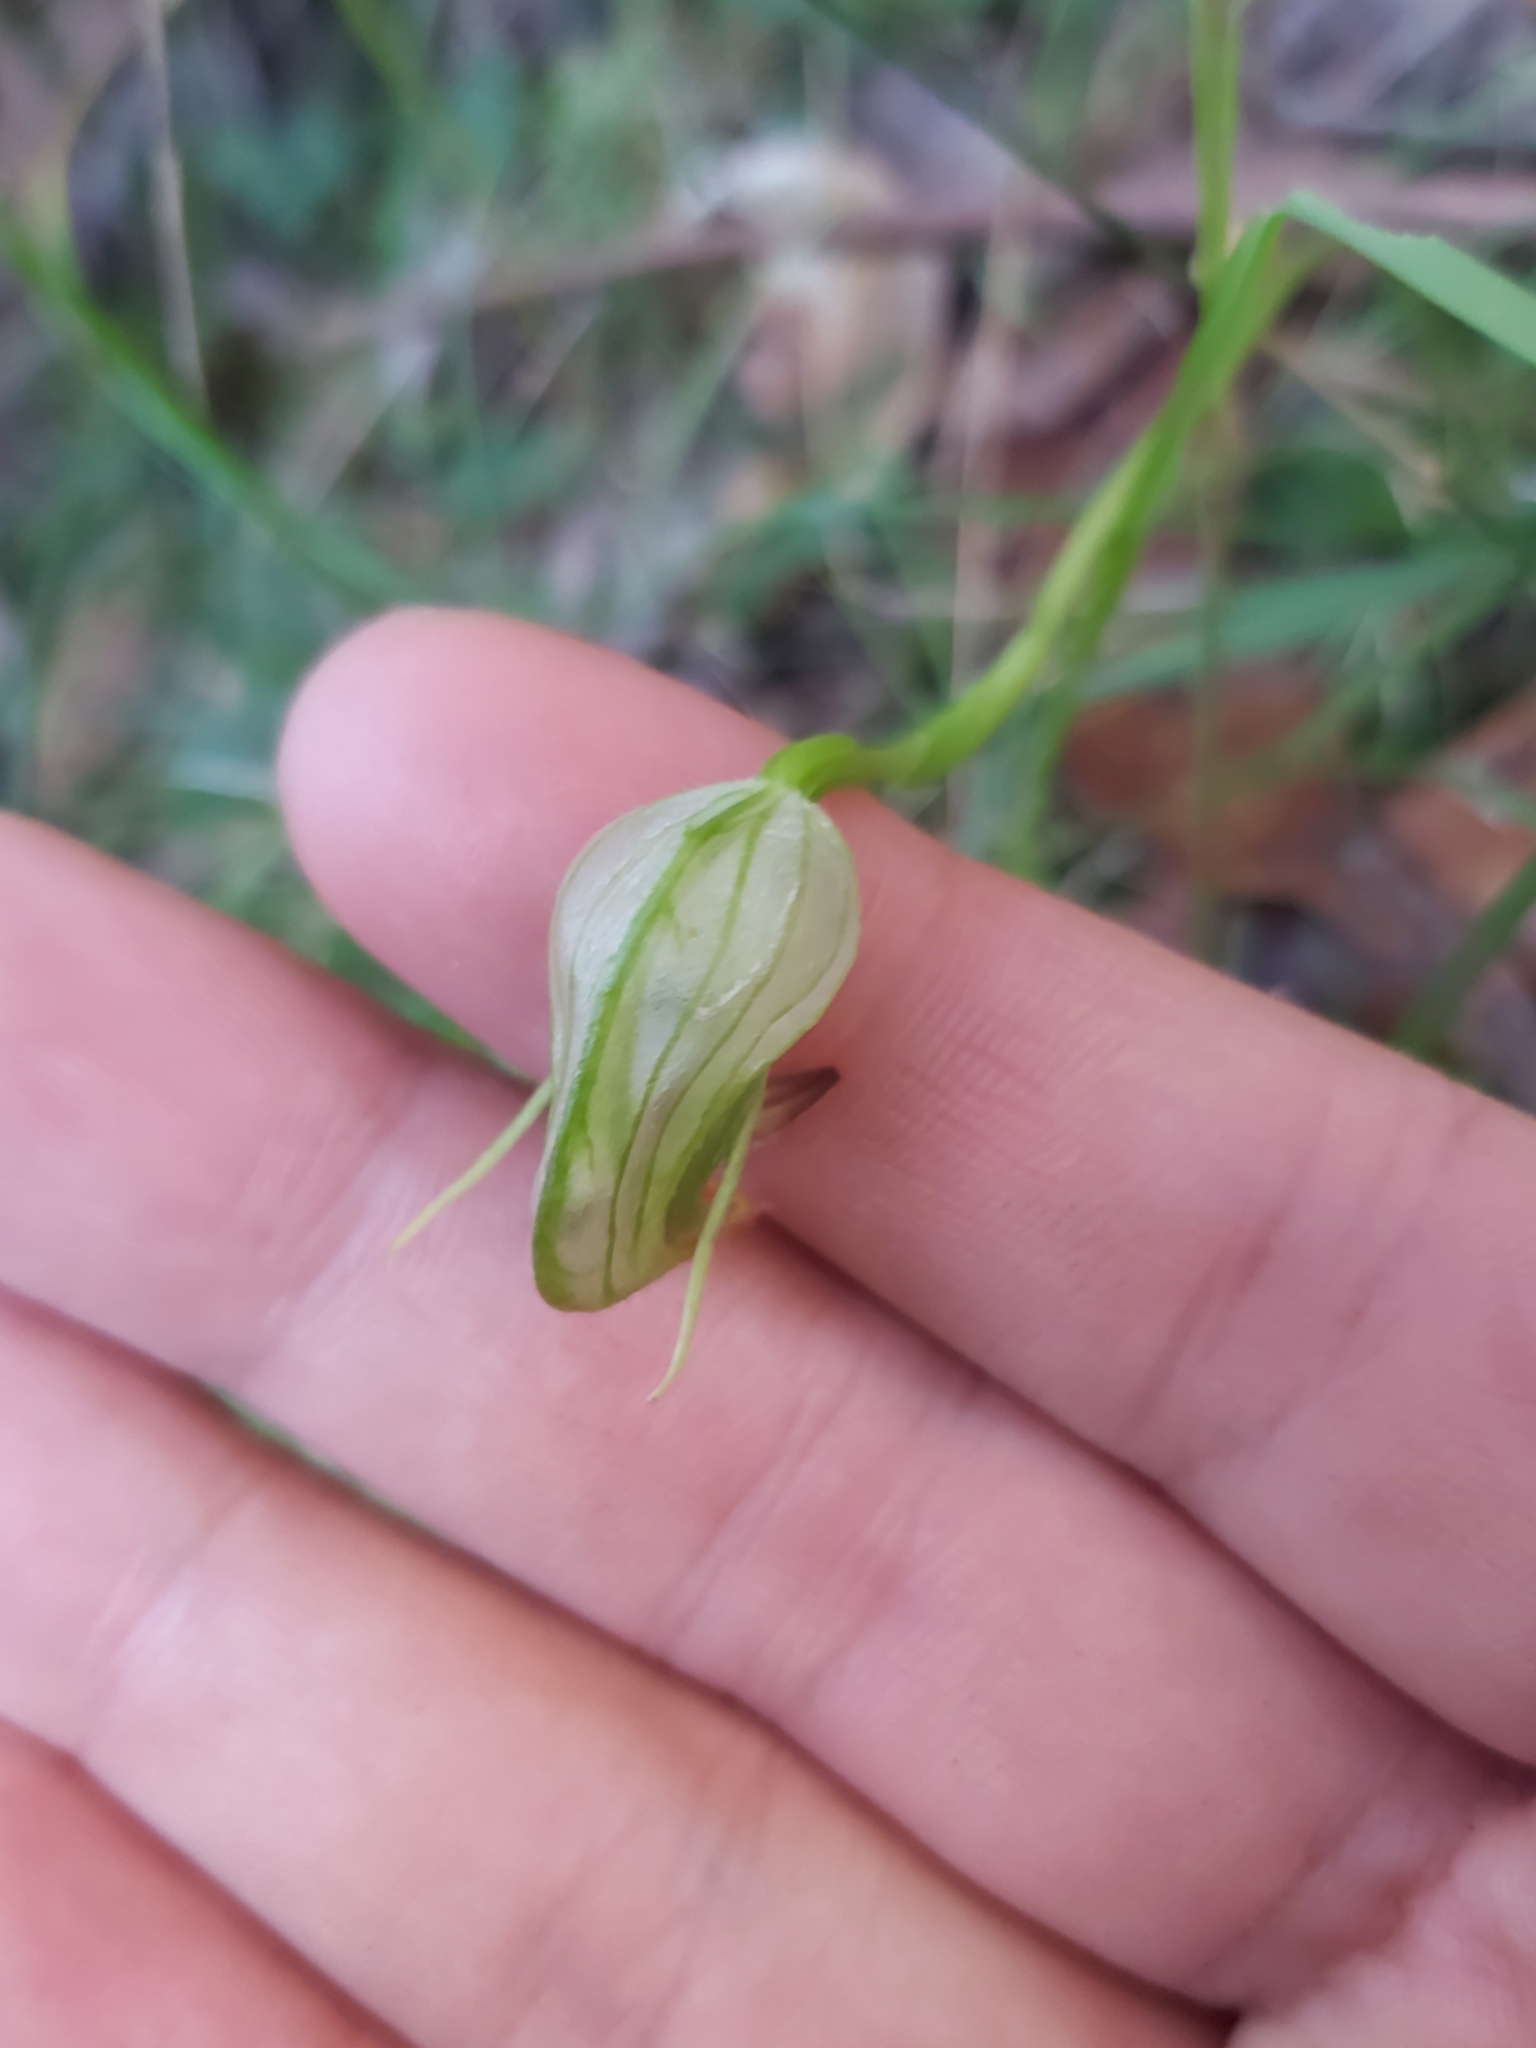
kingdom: Plantae
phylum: Tracheophyta
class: Liliopsida
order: Asparagales
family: Orchidaceae
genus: Pterostylis
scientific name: Pterostylis nutans
